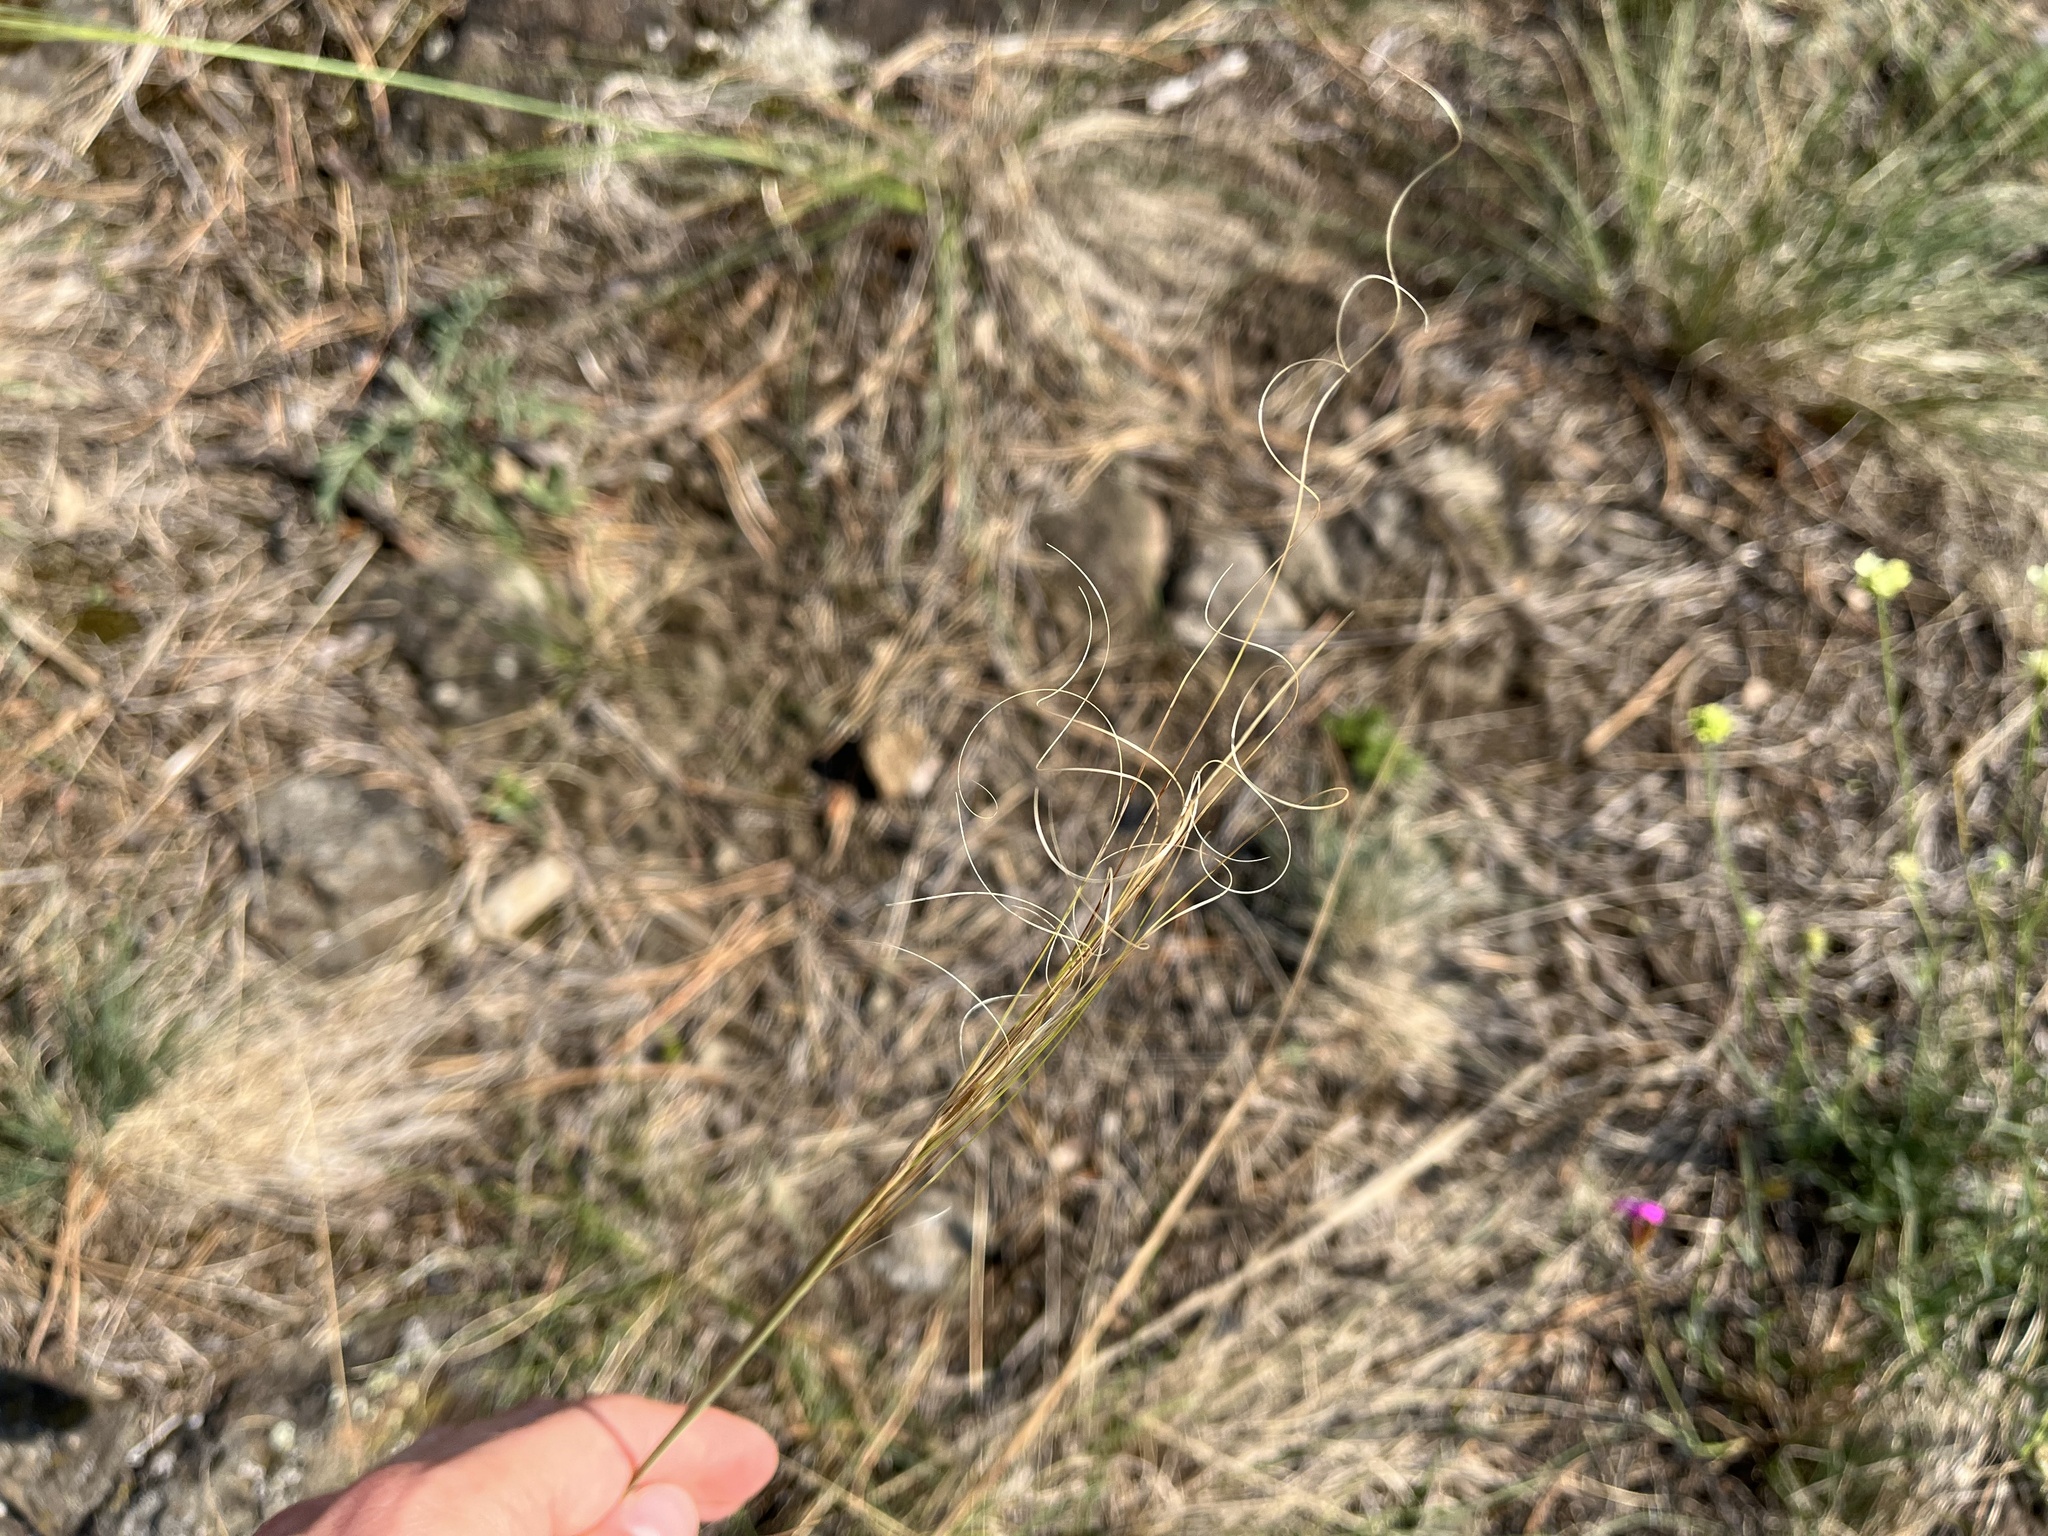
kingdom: Plantae
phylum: Tracheophyta
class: Liliopsida
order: Poales
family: Poaceae
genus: Stipa
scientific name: Stipa capillata
